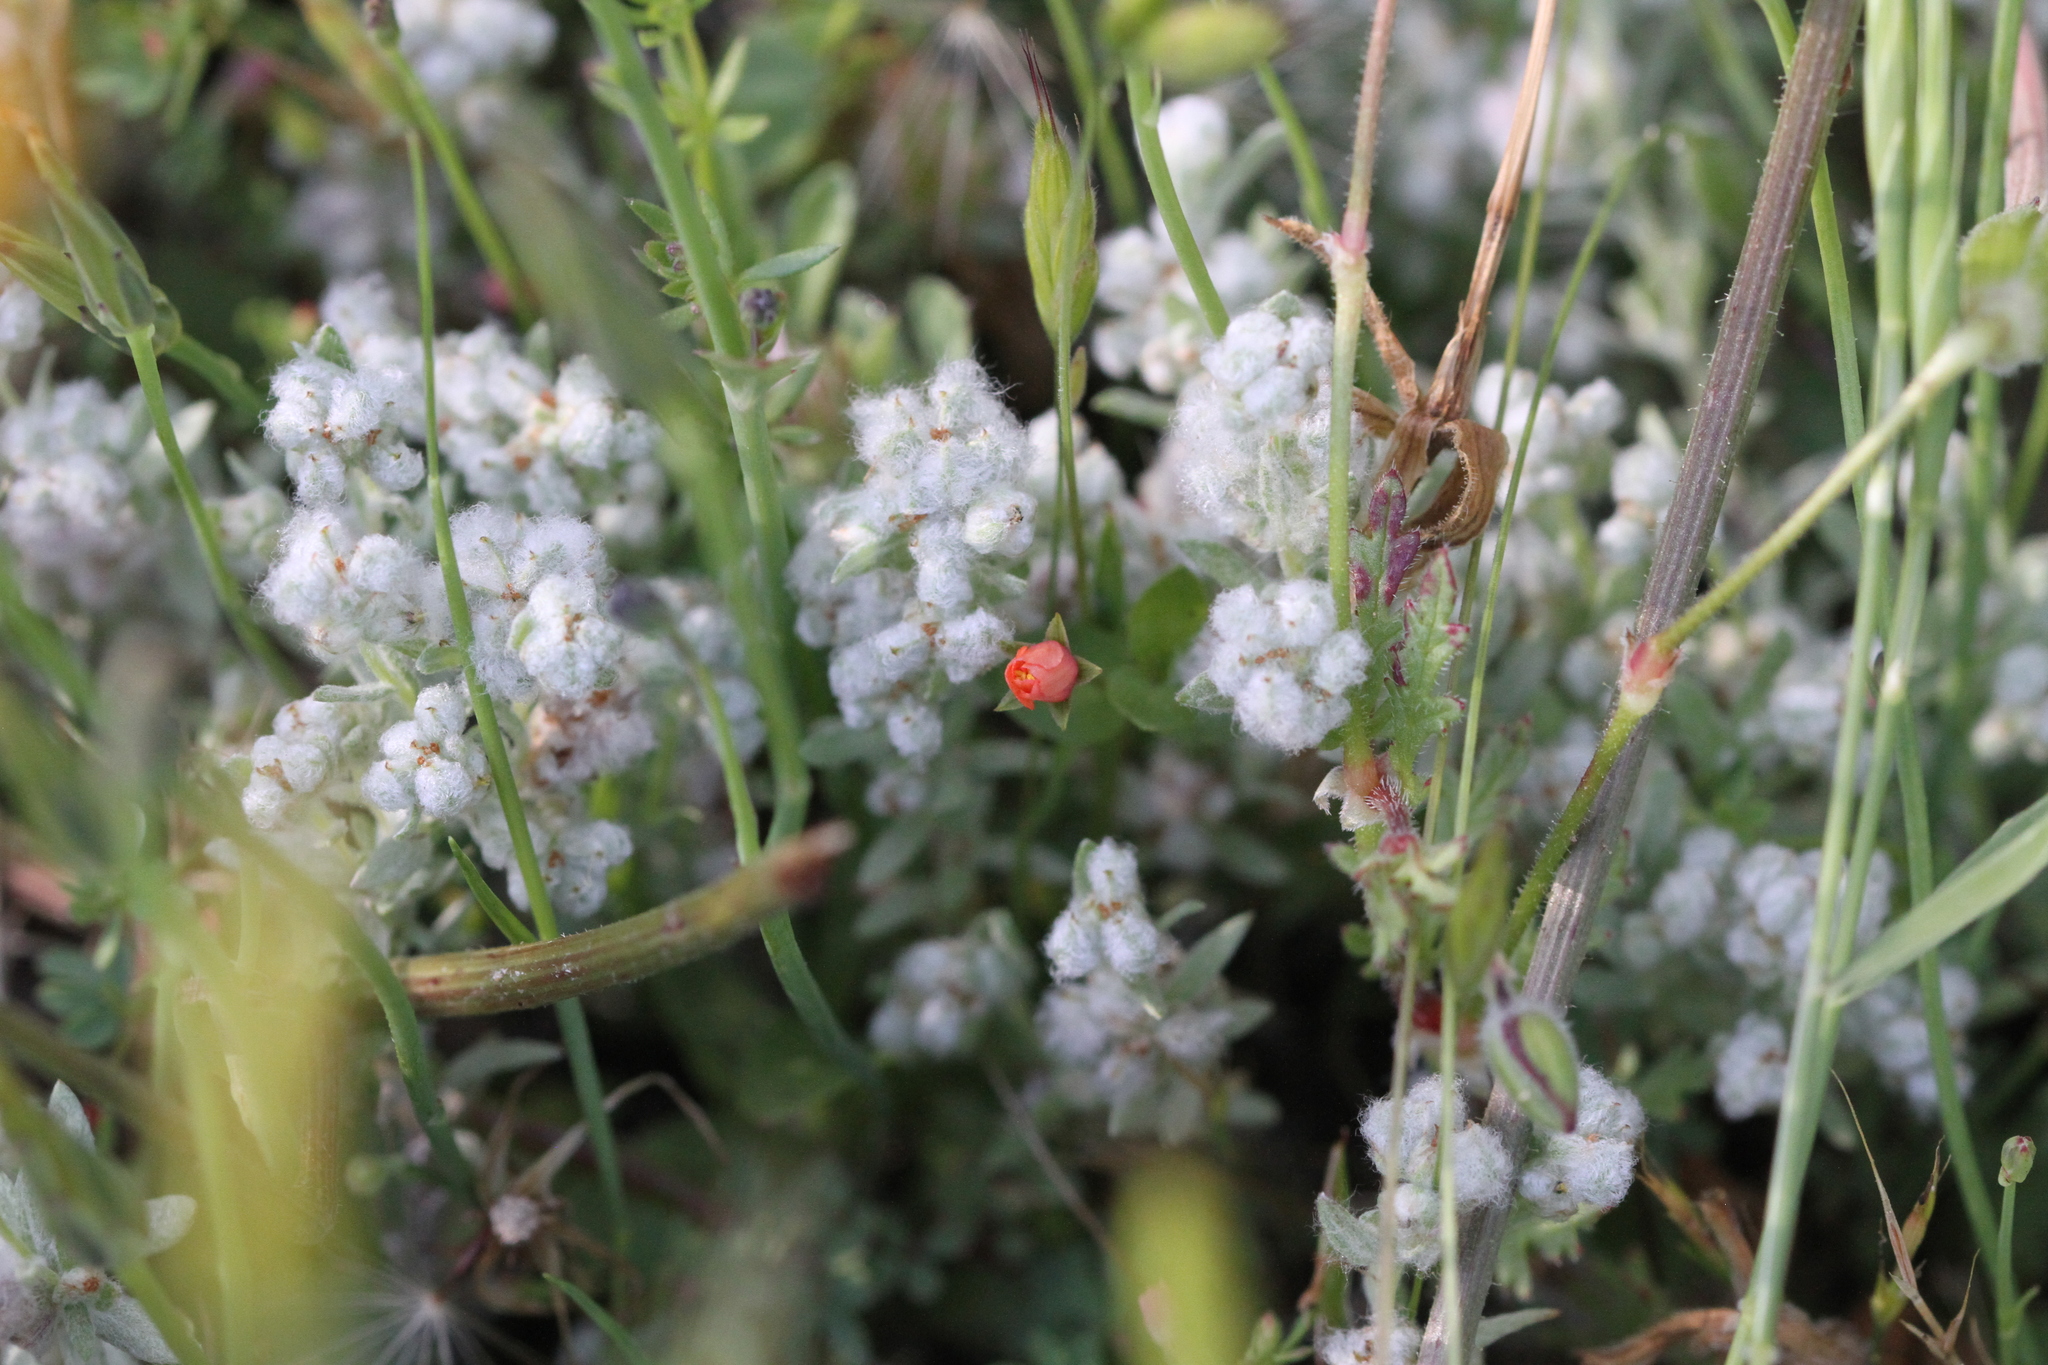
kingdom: Plantae
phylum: Tracheophyta
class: Magnoliopsida
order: Asterales
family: Asteraceae
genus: Bombycilaena
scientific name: Bombycilaena californica
